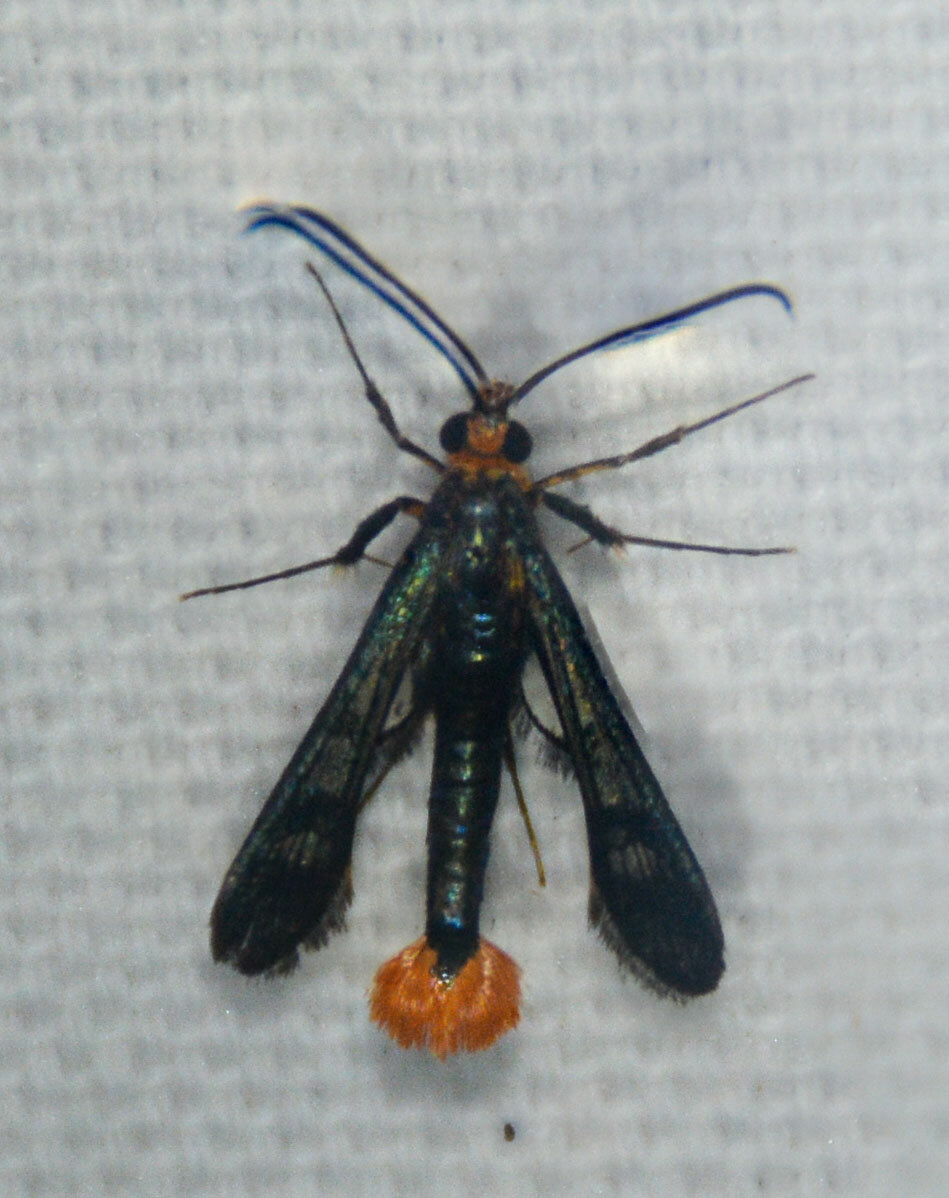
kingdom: Animalia
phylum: Arthropoda
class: Insecta
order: Lepidoptera
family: Sesiidae
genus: Synanthedon
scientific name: Synanthedon acerni
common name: Maple callus borer moth
